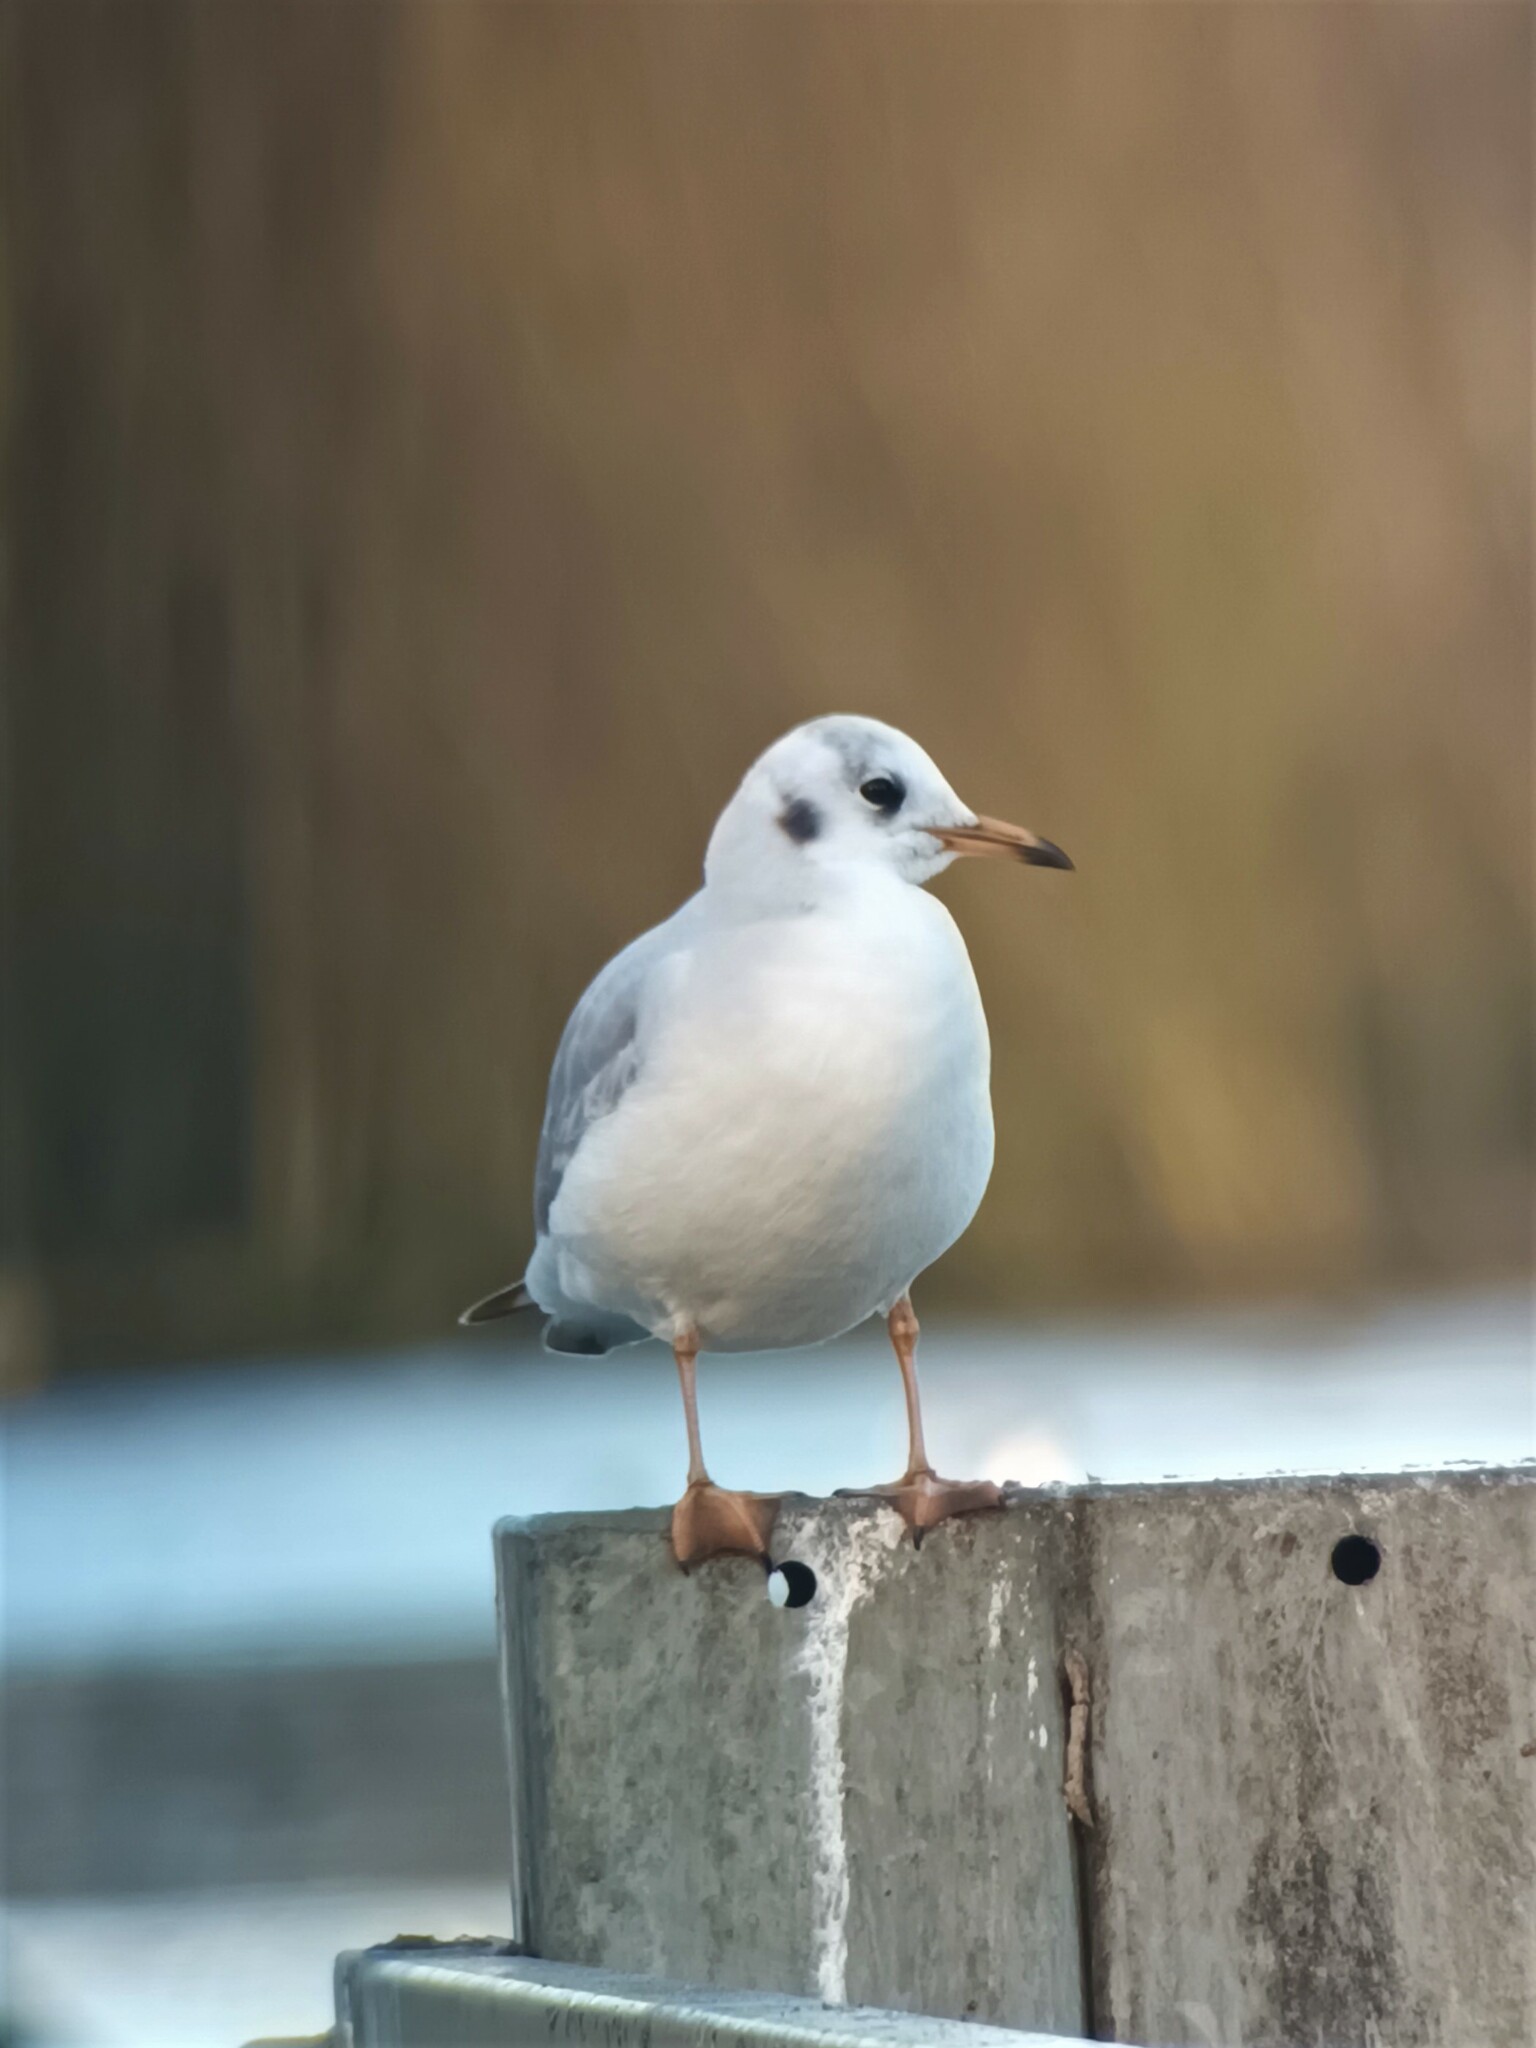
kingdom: Animalia
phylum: Chordata
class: Aves
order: Charadriiformes
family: Laridae
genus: Chroicocephalus
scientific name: Chroicocephalus ridibundus
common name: Black-headed gull
